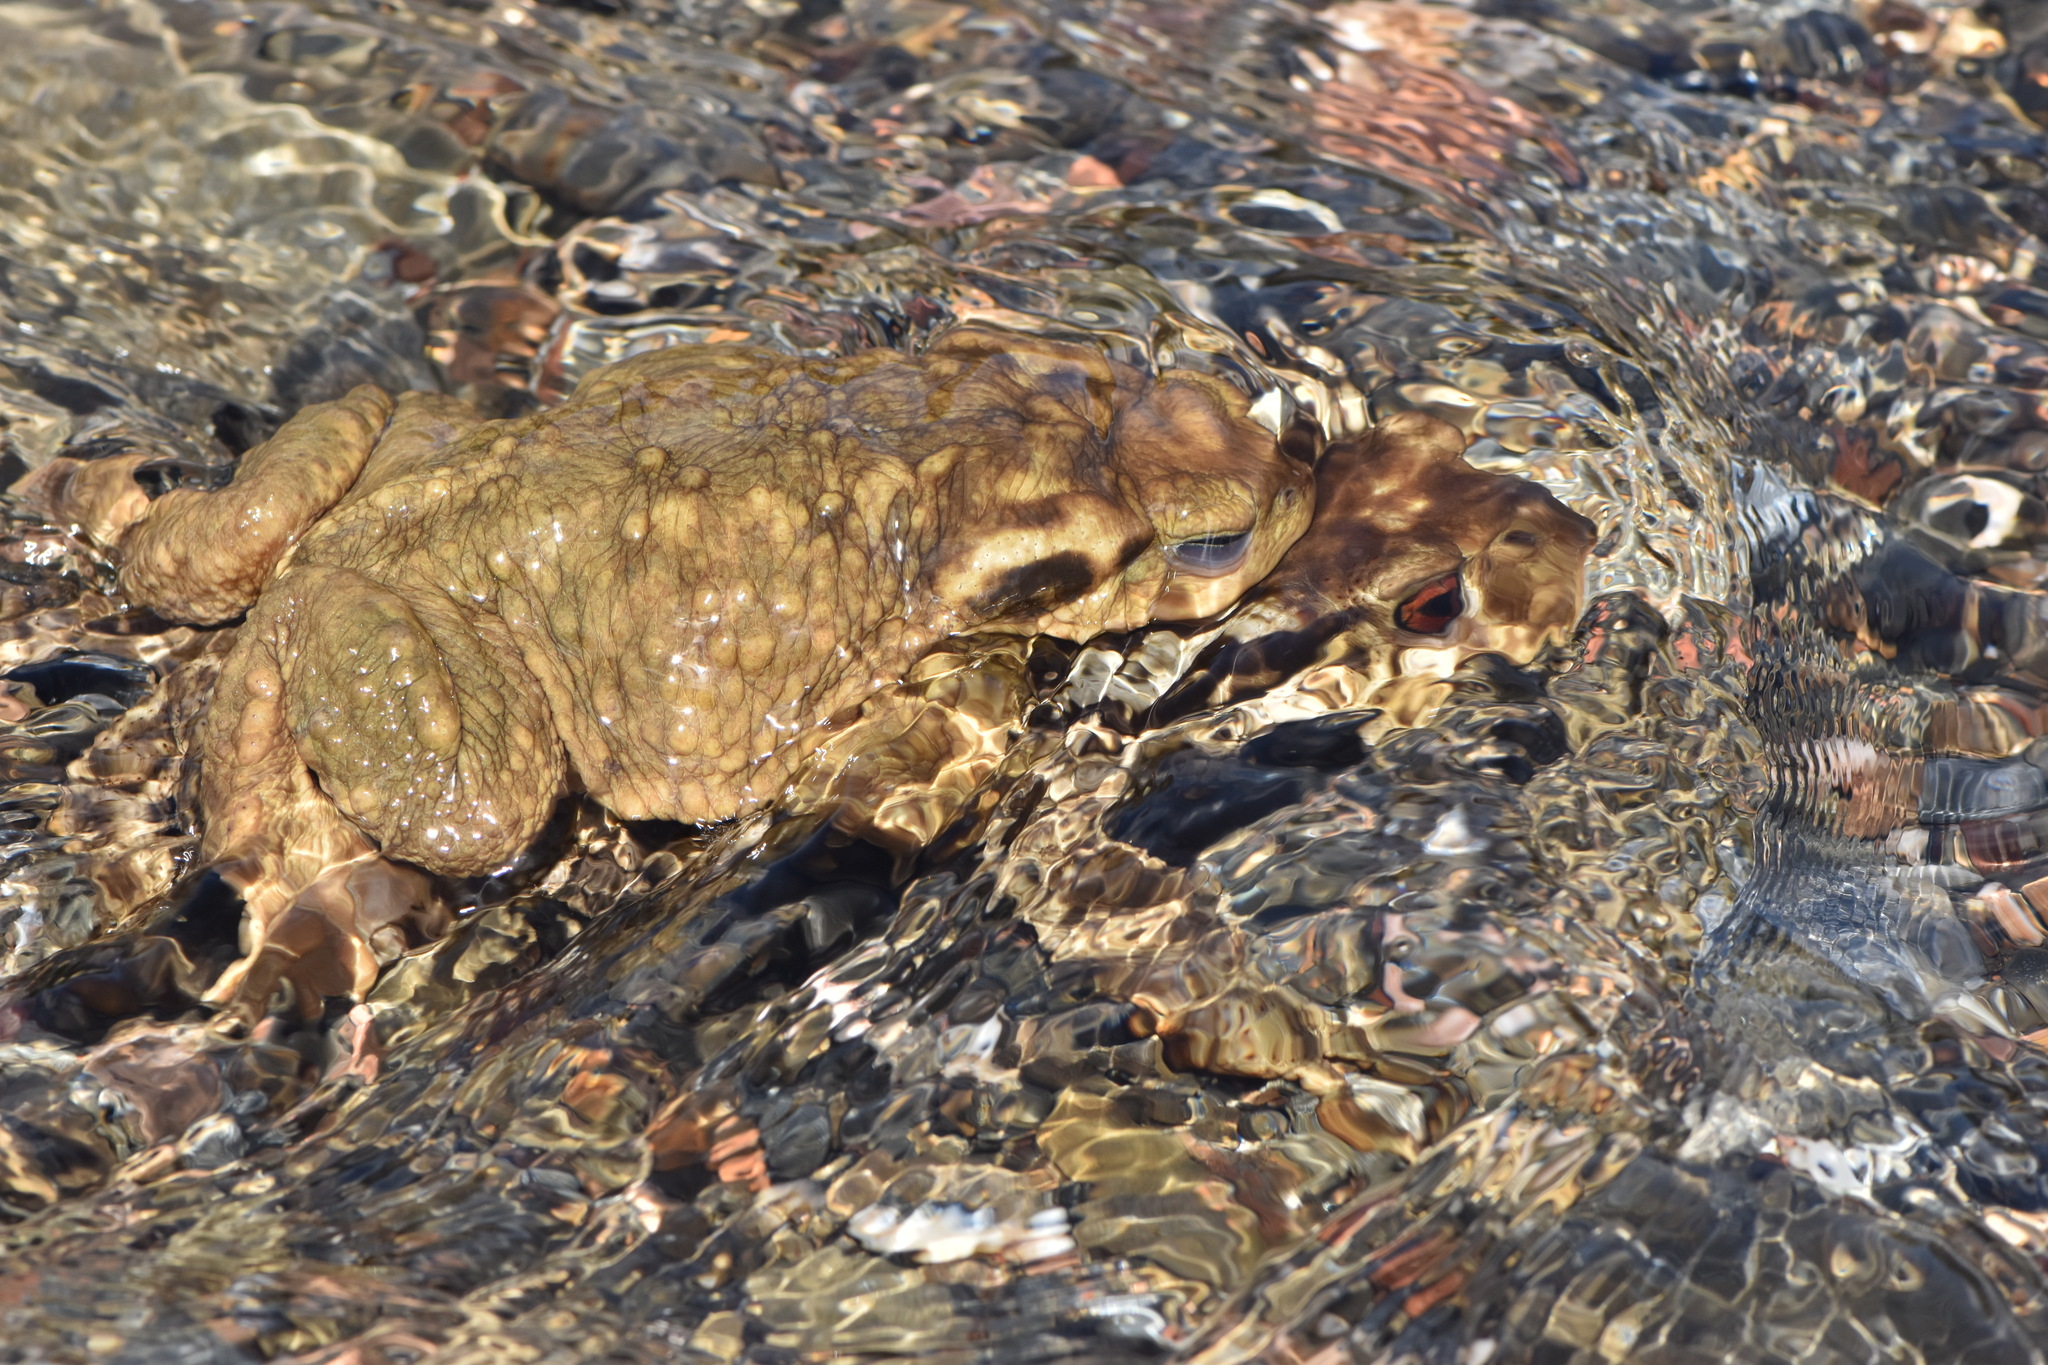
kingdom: Animalia
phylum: Chordata
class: Amphibia
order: Anura
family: Bufonidae
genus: Bufo
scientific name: Bufo spinosus
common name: Western common toad
